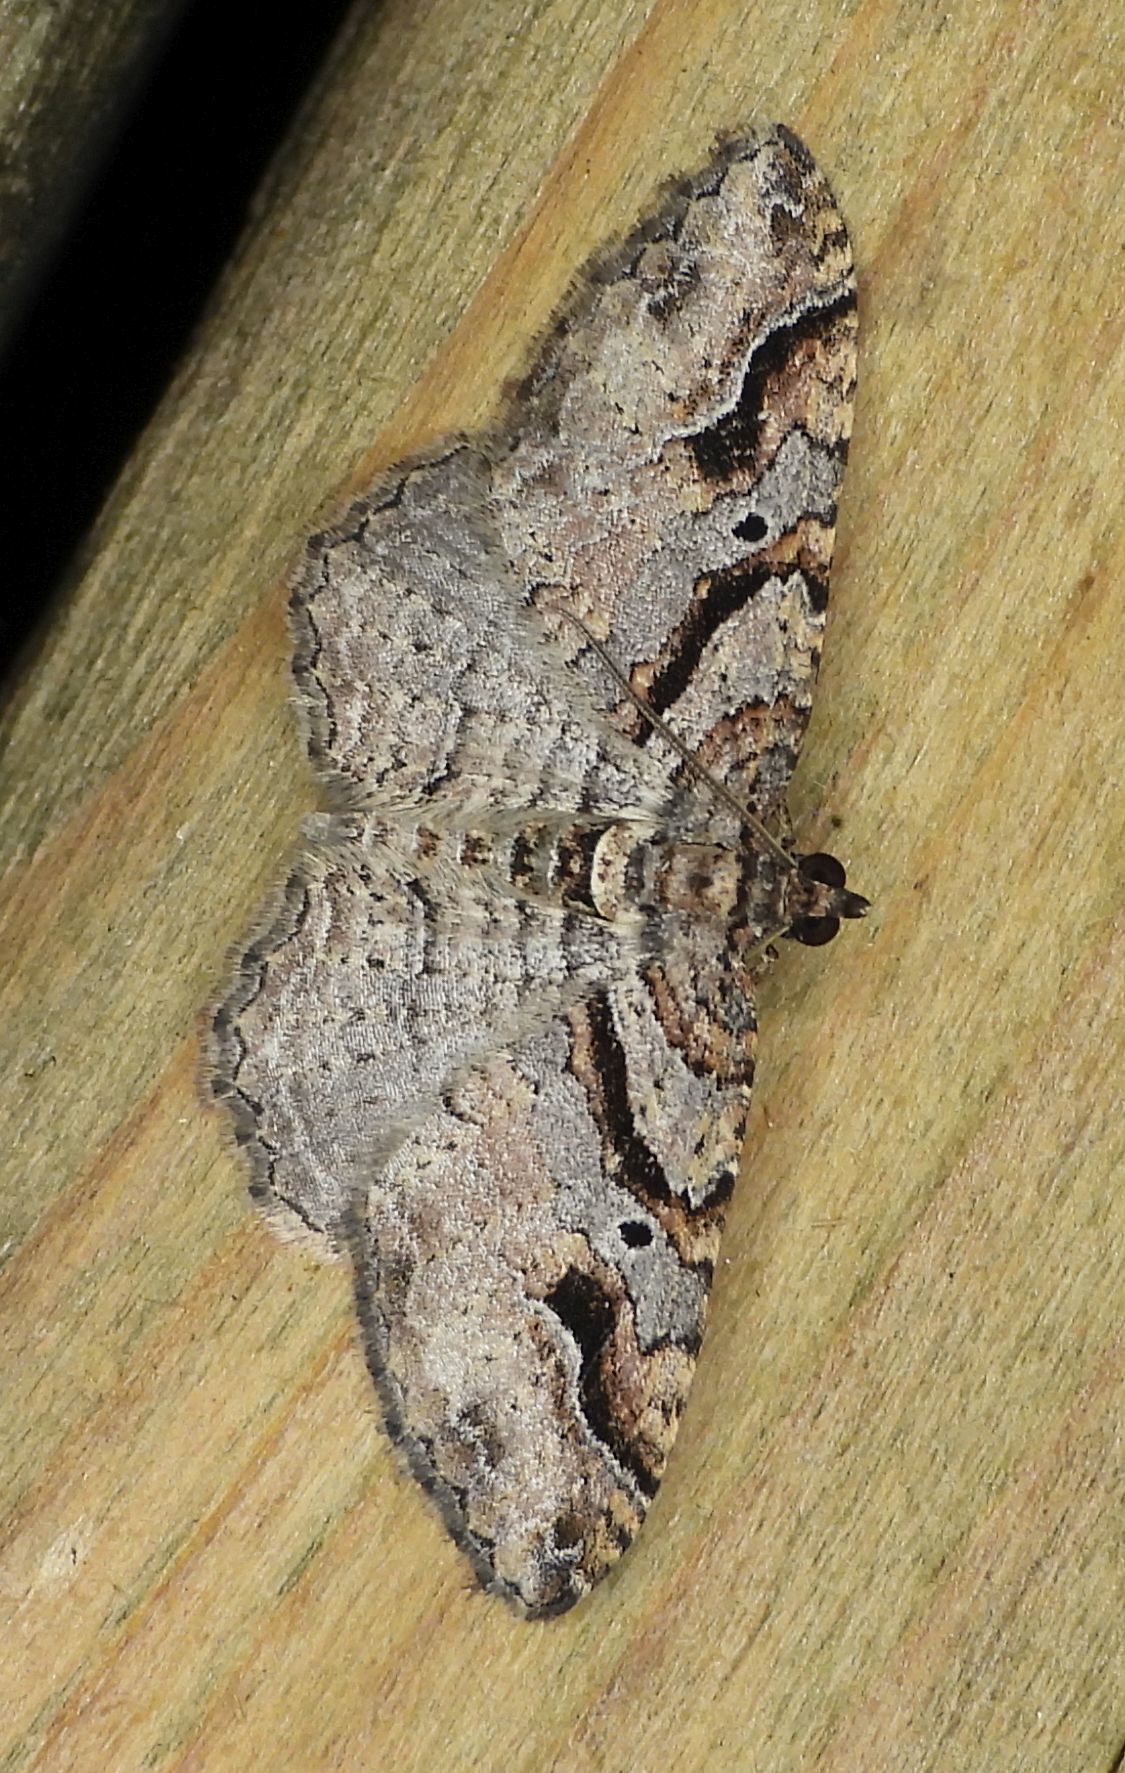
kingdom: Animalia
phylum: Arthropoda
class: Insecta
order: Lepidoptera
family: Geometridae
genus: Costaconvexa
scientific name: Costaconvexa centrostrigaria
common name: Bent-line carpet
